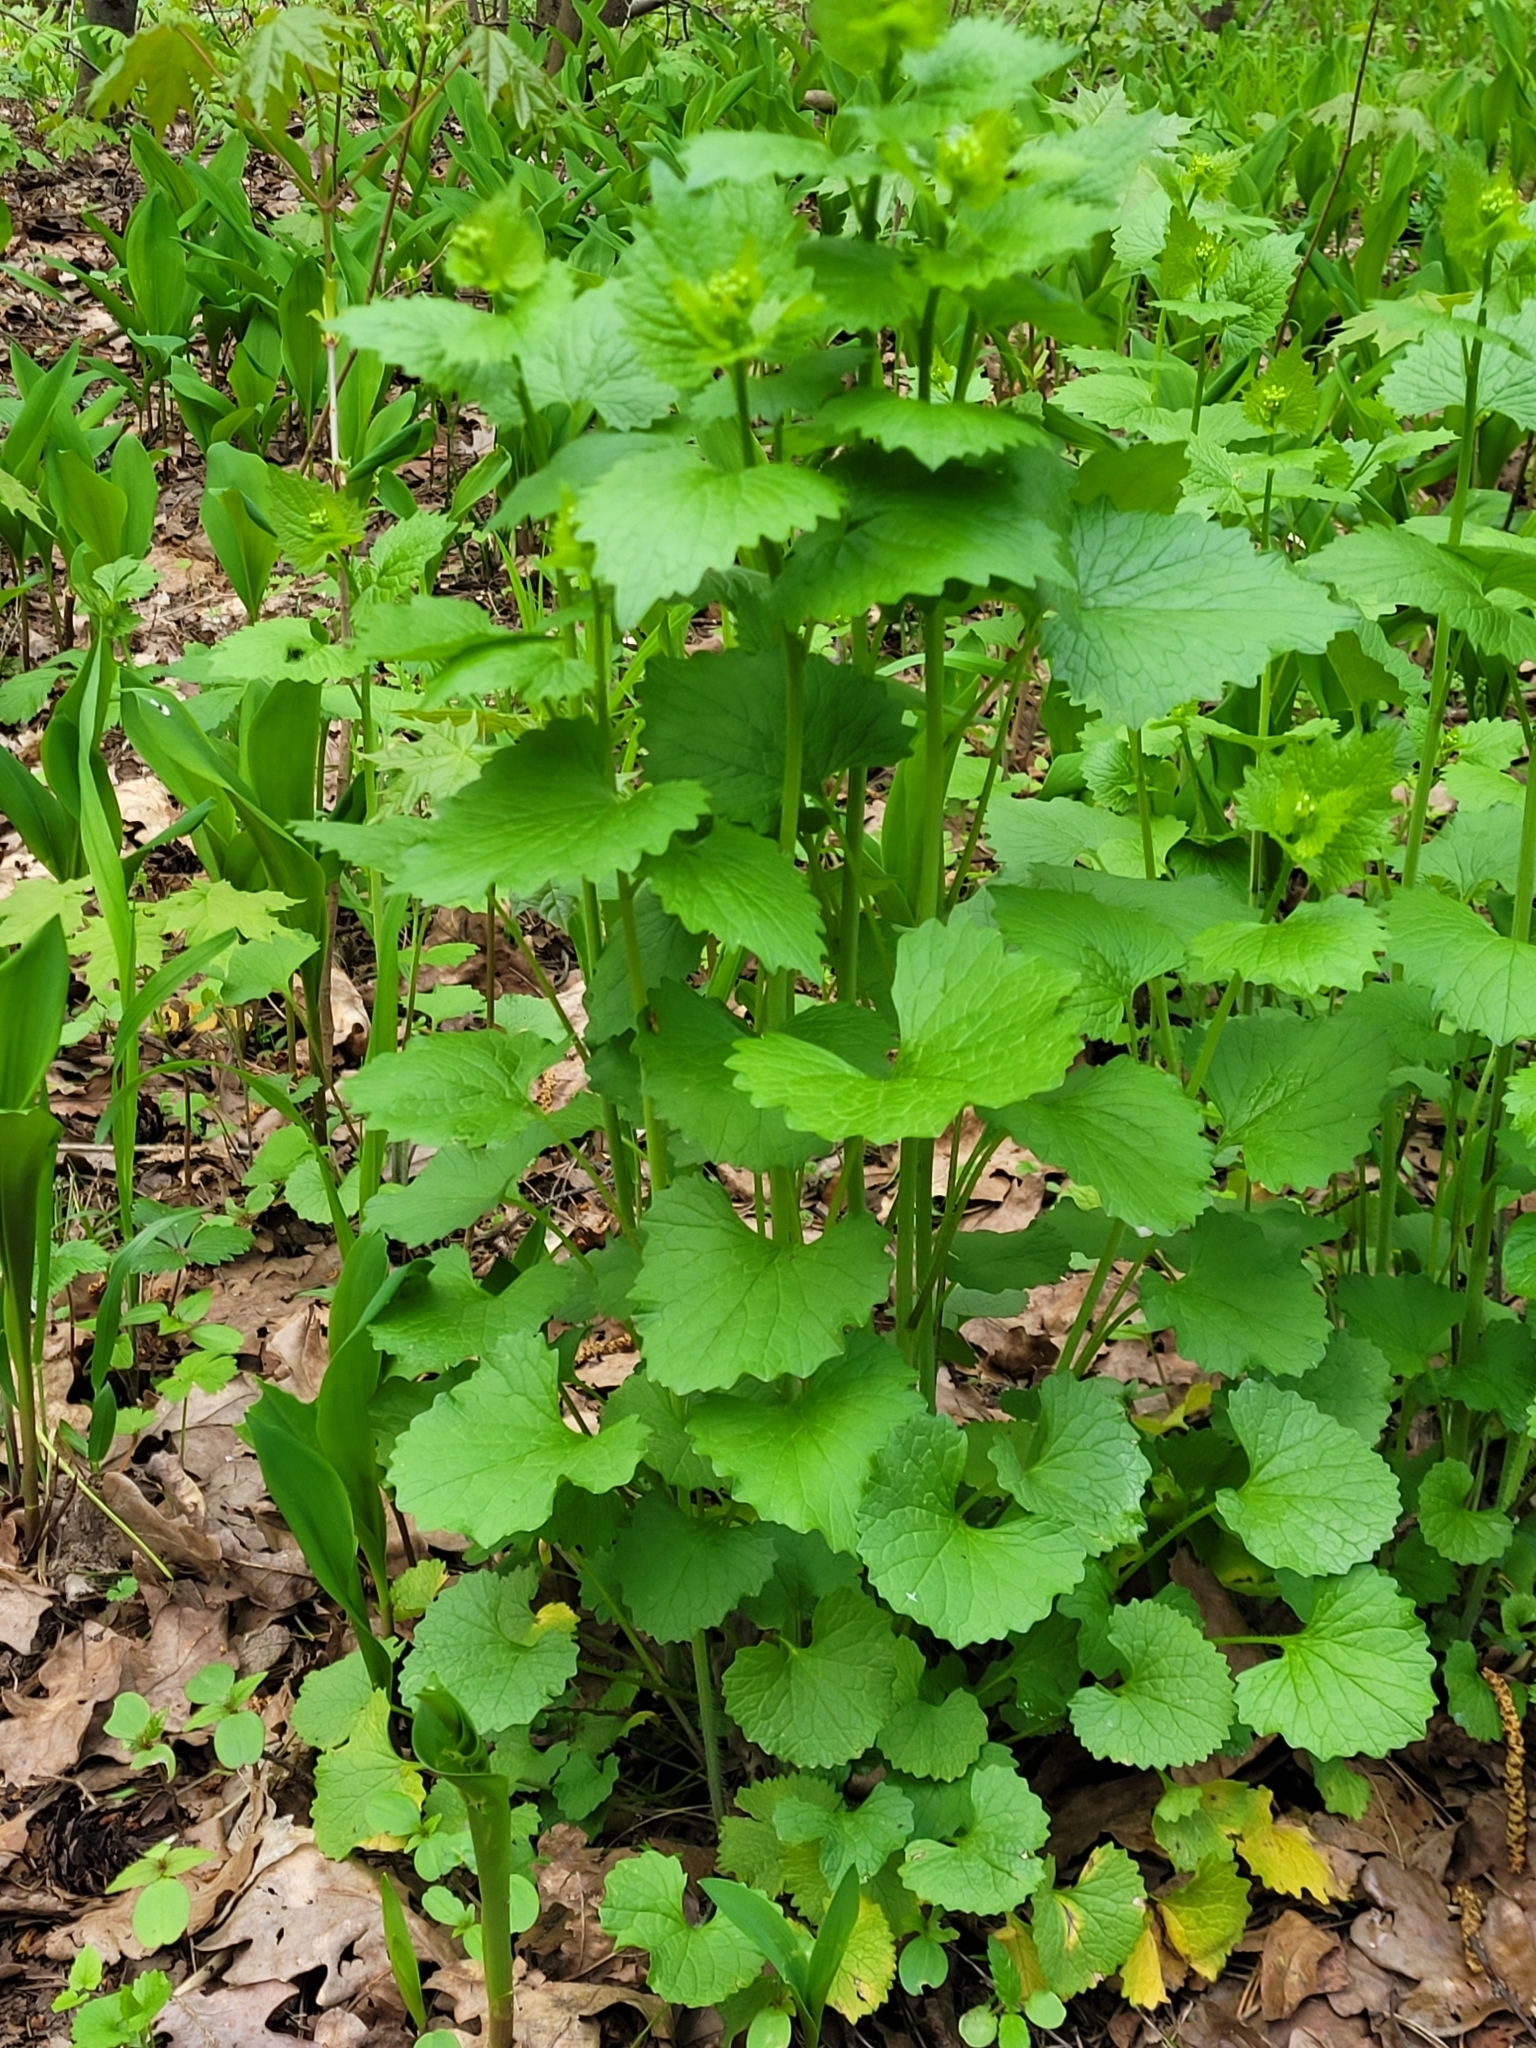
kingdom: Plantae
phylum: Tracheophyta
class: Magnoliopsida
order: Brassicales
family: Brassicaceae
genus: Alliaria
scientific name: Alliaria petiolata
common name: Garlic mustard
